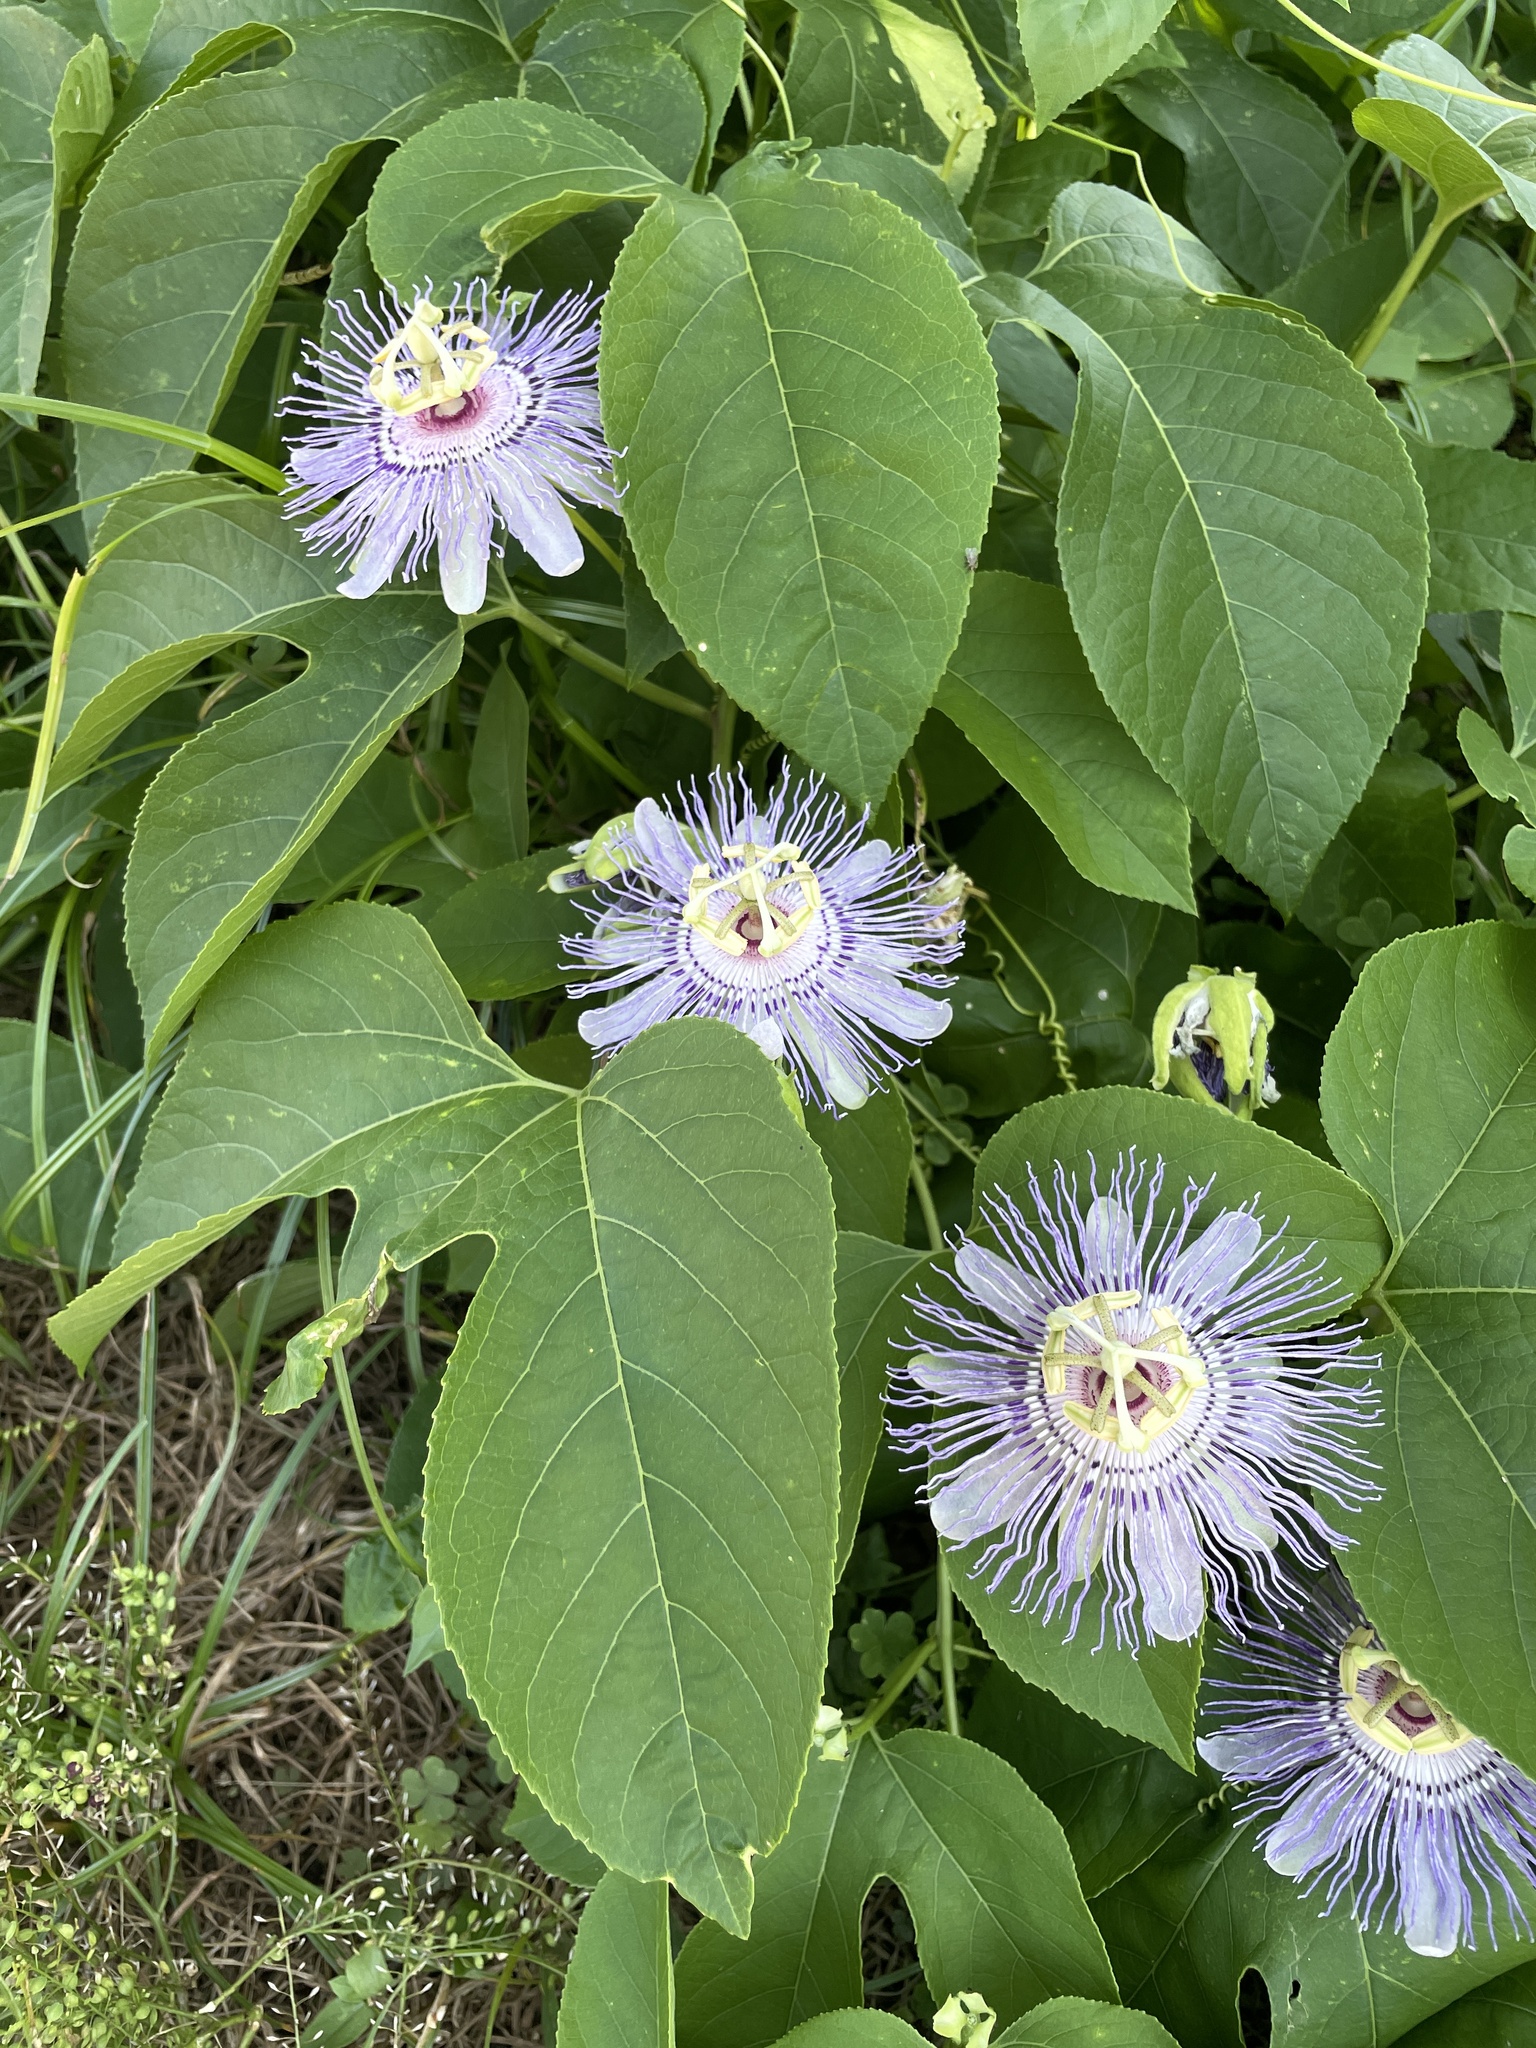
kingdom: Plantae
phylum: Tracheophyta
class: Magnoliopsida
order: Malpighiales
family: Passifloraceae
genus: Passiflora
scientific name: Passiflora incarnata
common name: Apricot-vine
